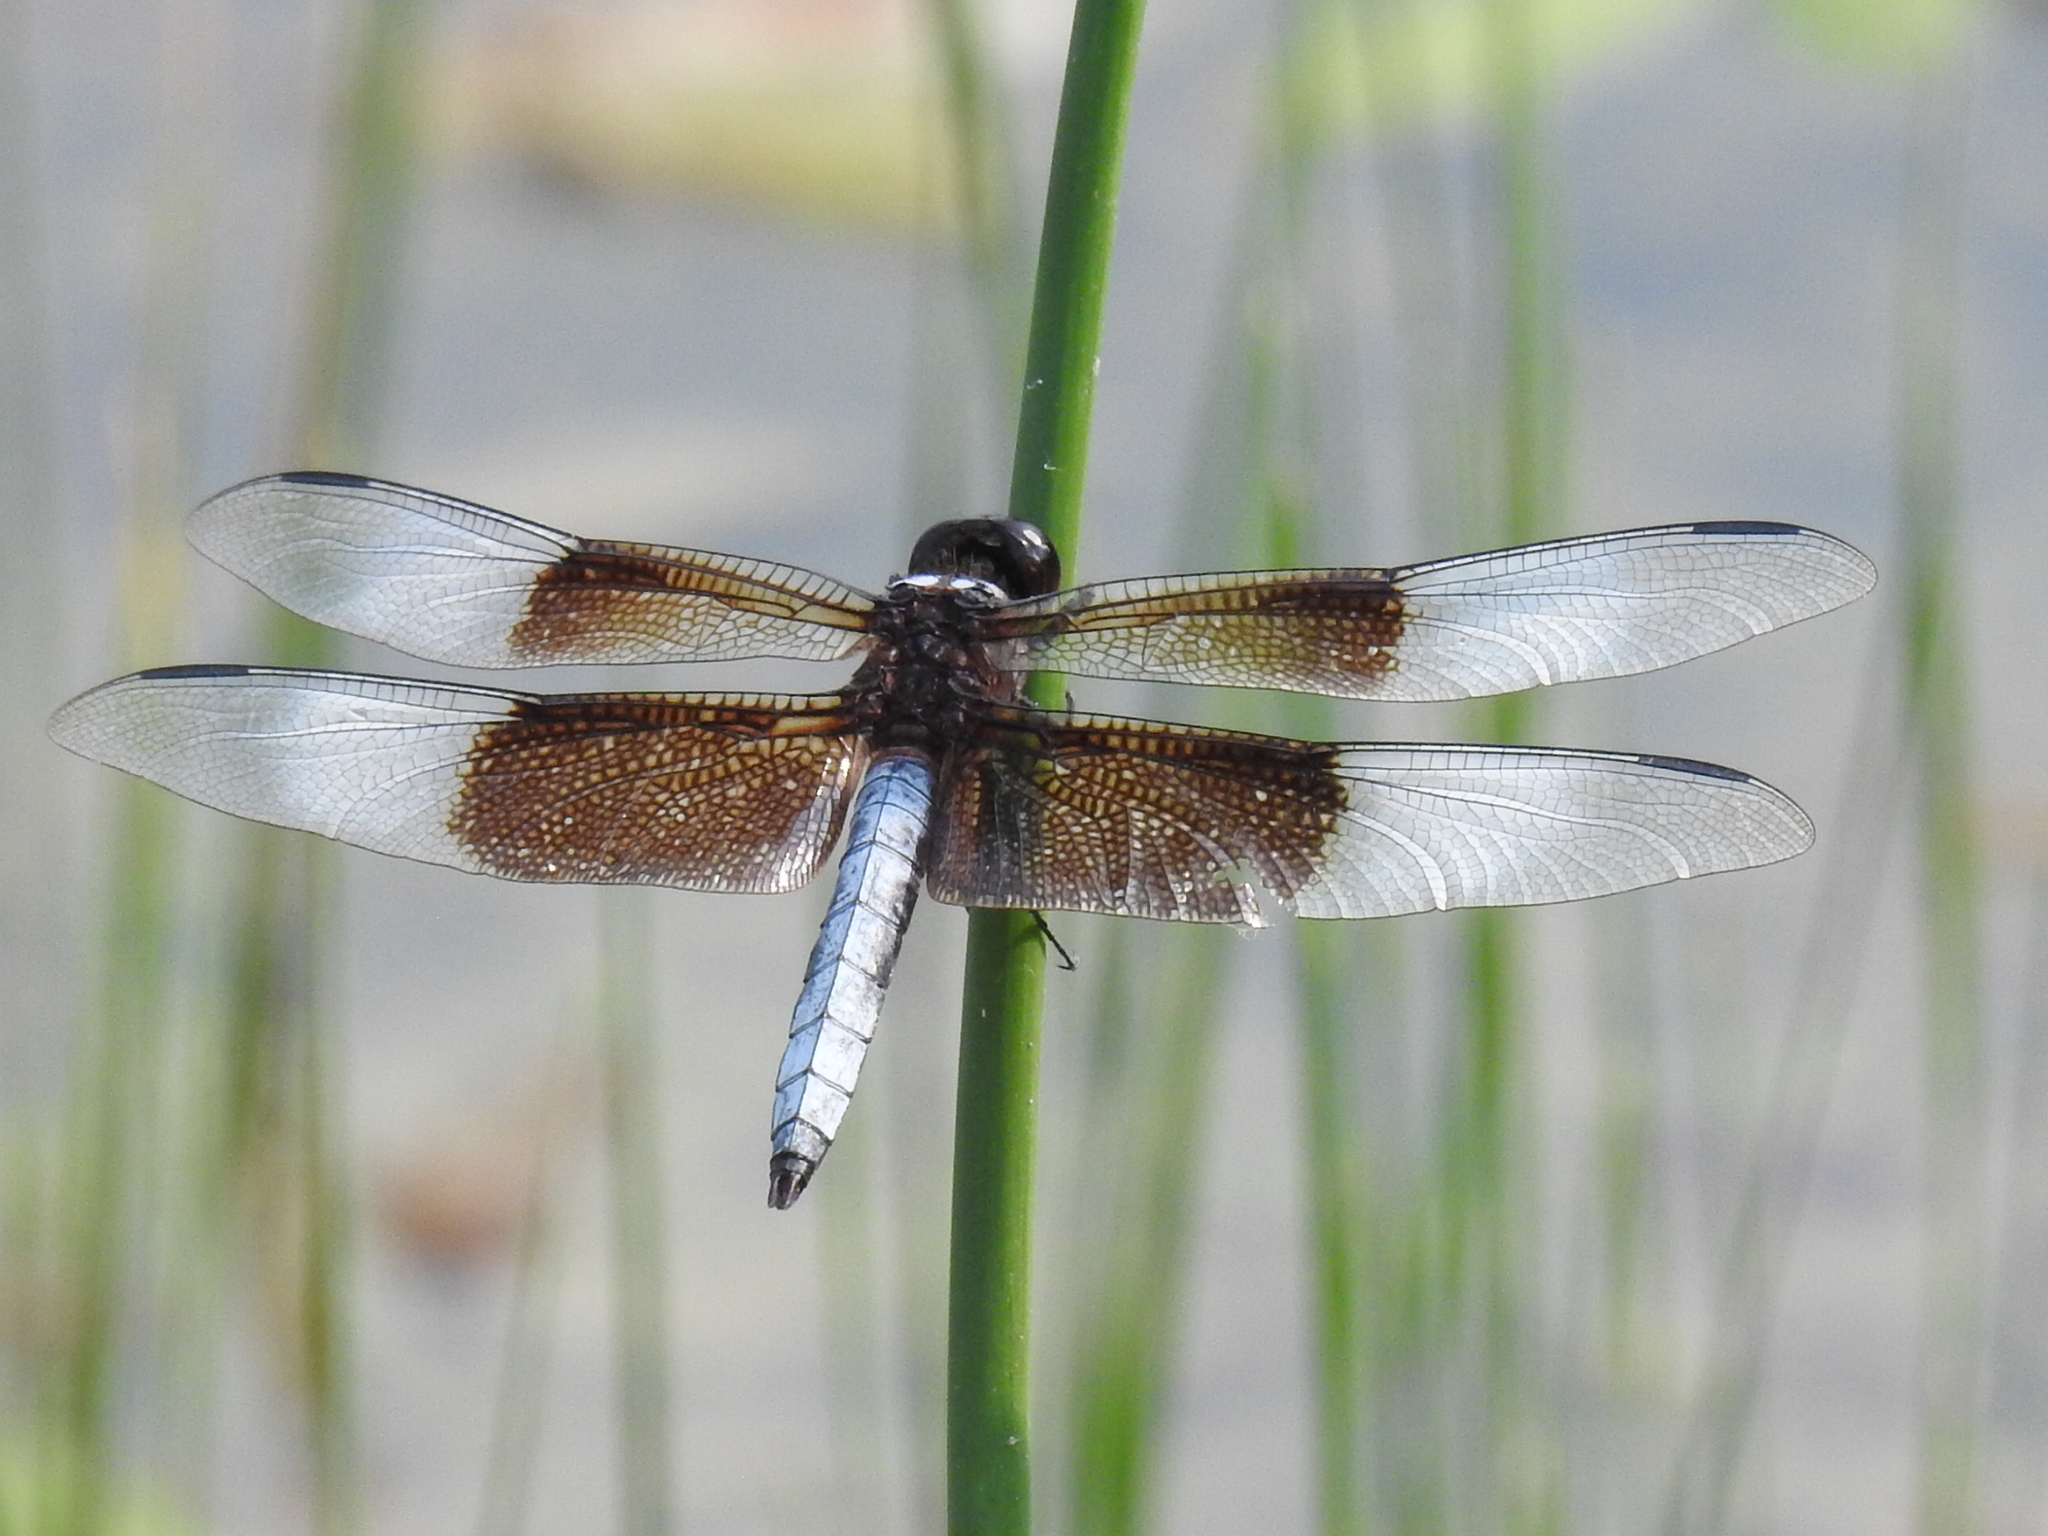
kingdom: Animalia
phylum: Arthropoda
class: Insecta
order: Odonata
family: Libellulidae
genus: Libellula
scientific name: Libellula luctuosa
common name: Widow skimmer
